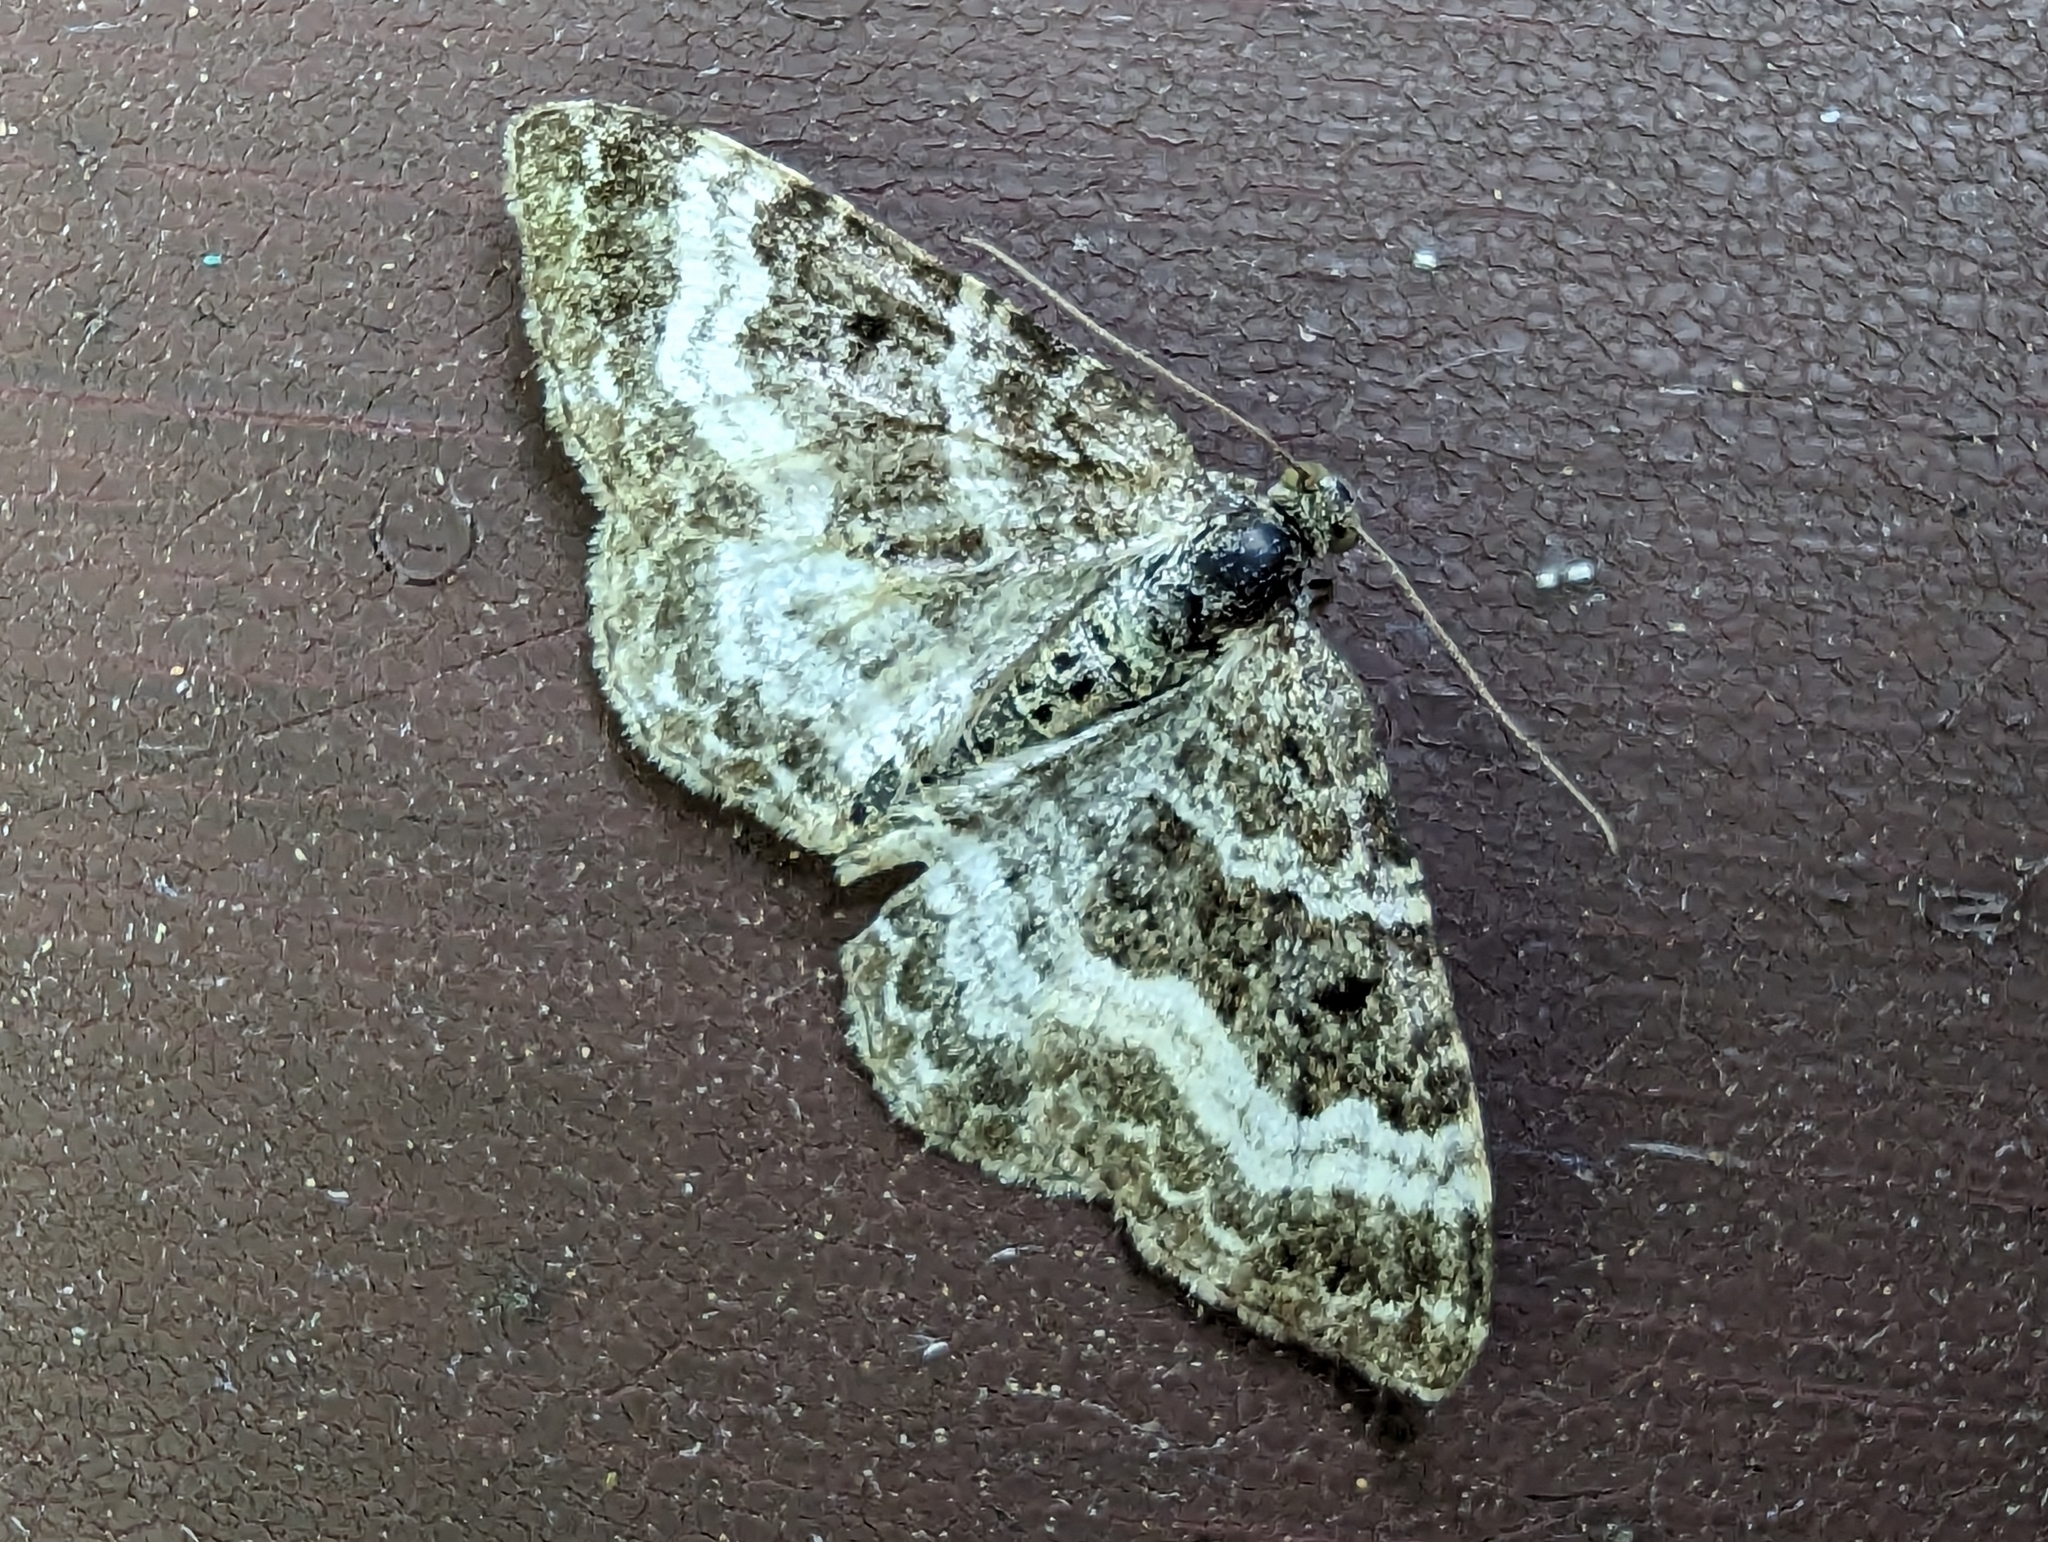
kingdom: Animalia
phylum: Arthropoda
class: Insecta
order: Lepidoptera
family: Geometridae
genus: Epirrhoe
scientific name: Epirrhoe alternata
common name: Common carpet
